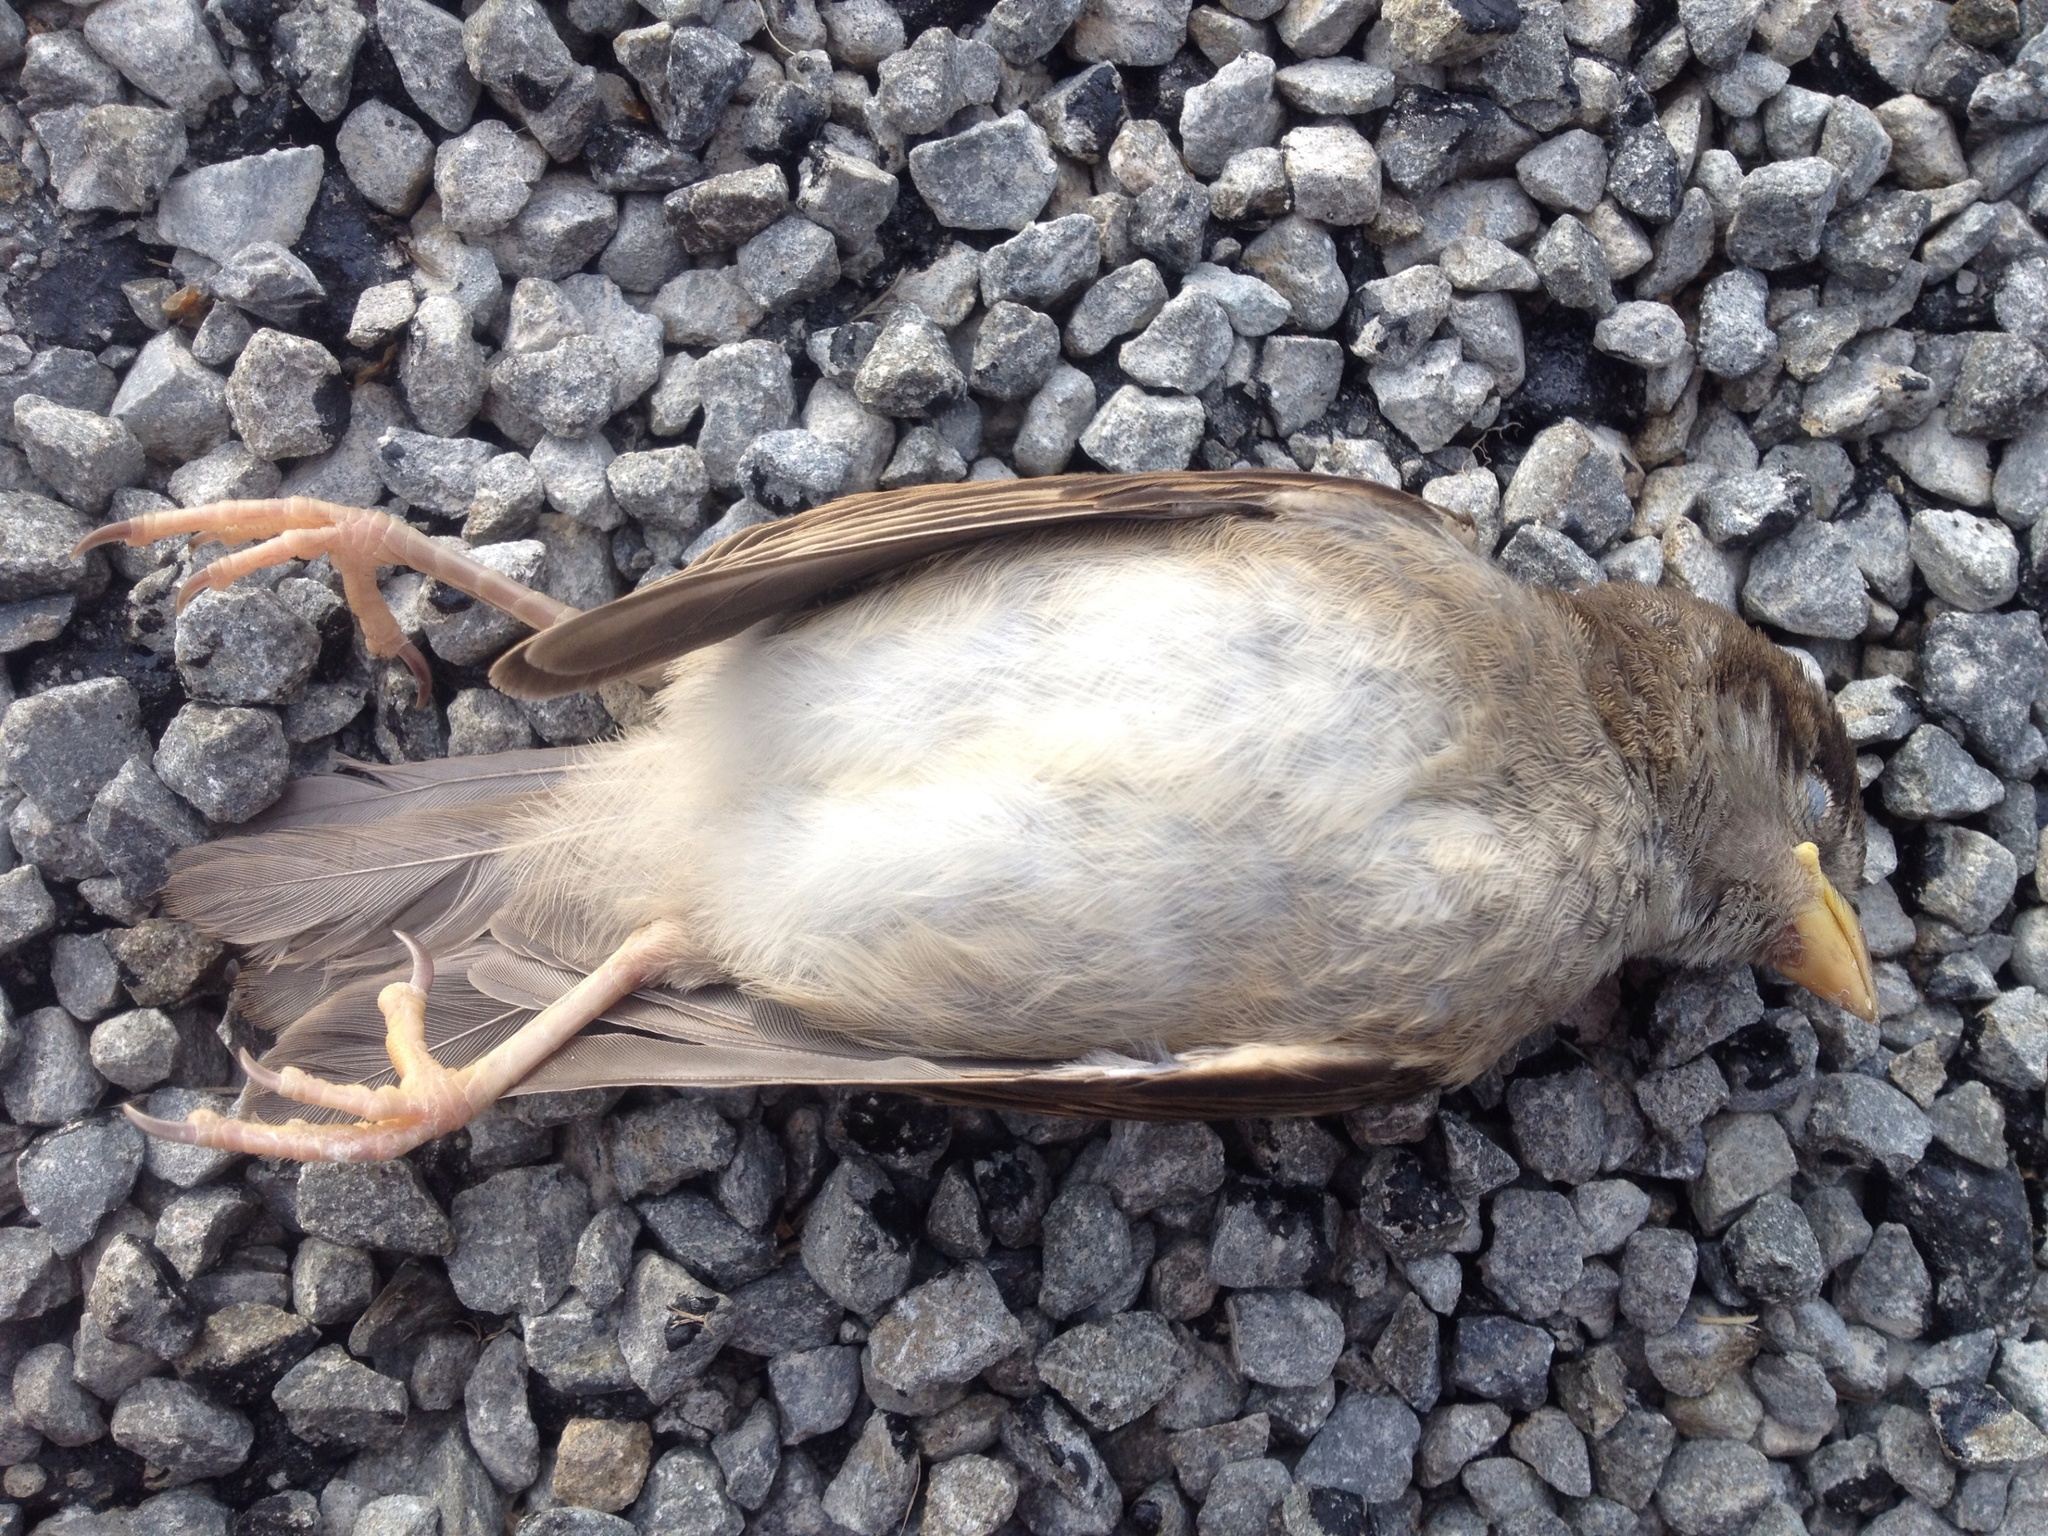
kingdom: Animalia
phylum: Chordata
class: Aves
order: Passeriformes
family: Passeridae
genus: Passer
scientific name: Passer domesticus
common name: House sparrow
